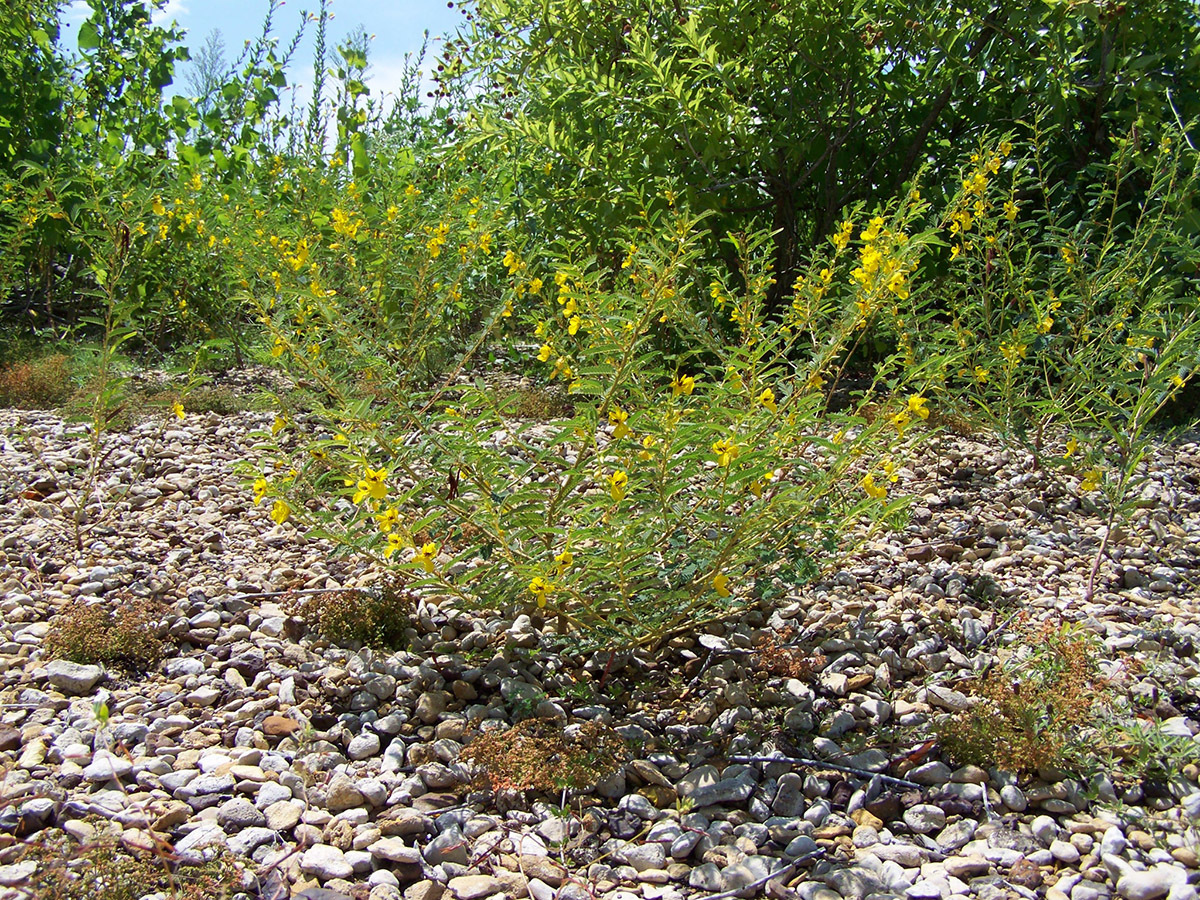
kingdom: Plantae
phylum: Tracheophyta
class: Magnoliopsida
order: Fabales
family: Fabaceae
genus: Chamaecrista
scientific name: Chamaecrista fasciculata
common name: Golden cassia
